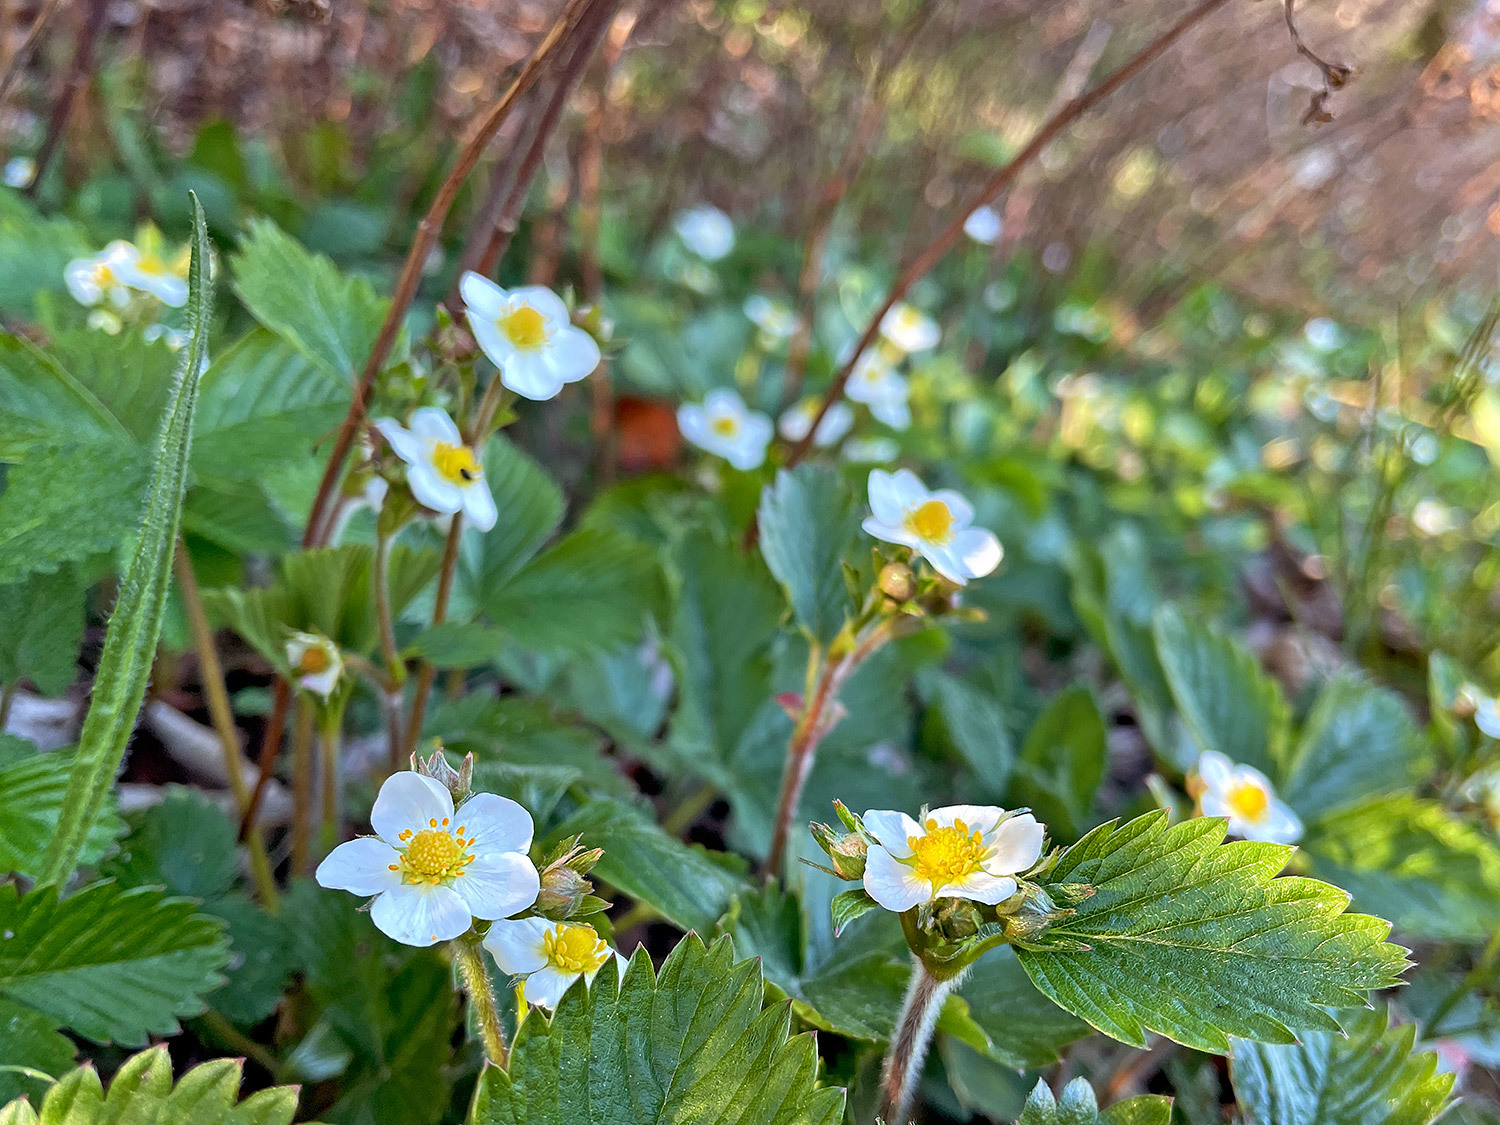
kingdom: Plantae
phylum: Tracheophyta
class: Magnoliopsida
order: Rosales
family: Rosaceae
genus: Fragaria
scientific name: Fragaria vesca
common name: Wild strawberry
